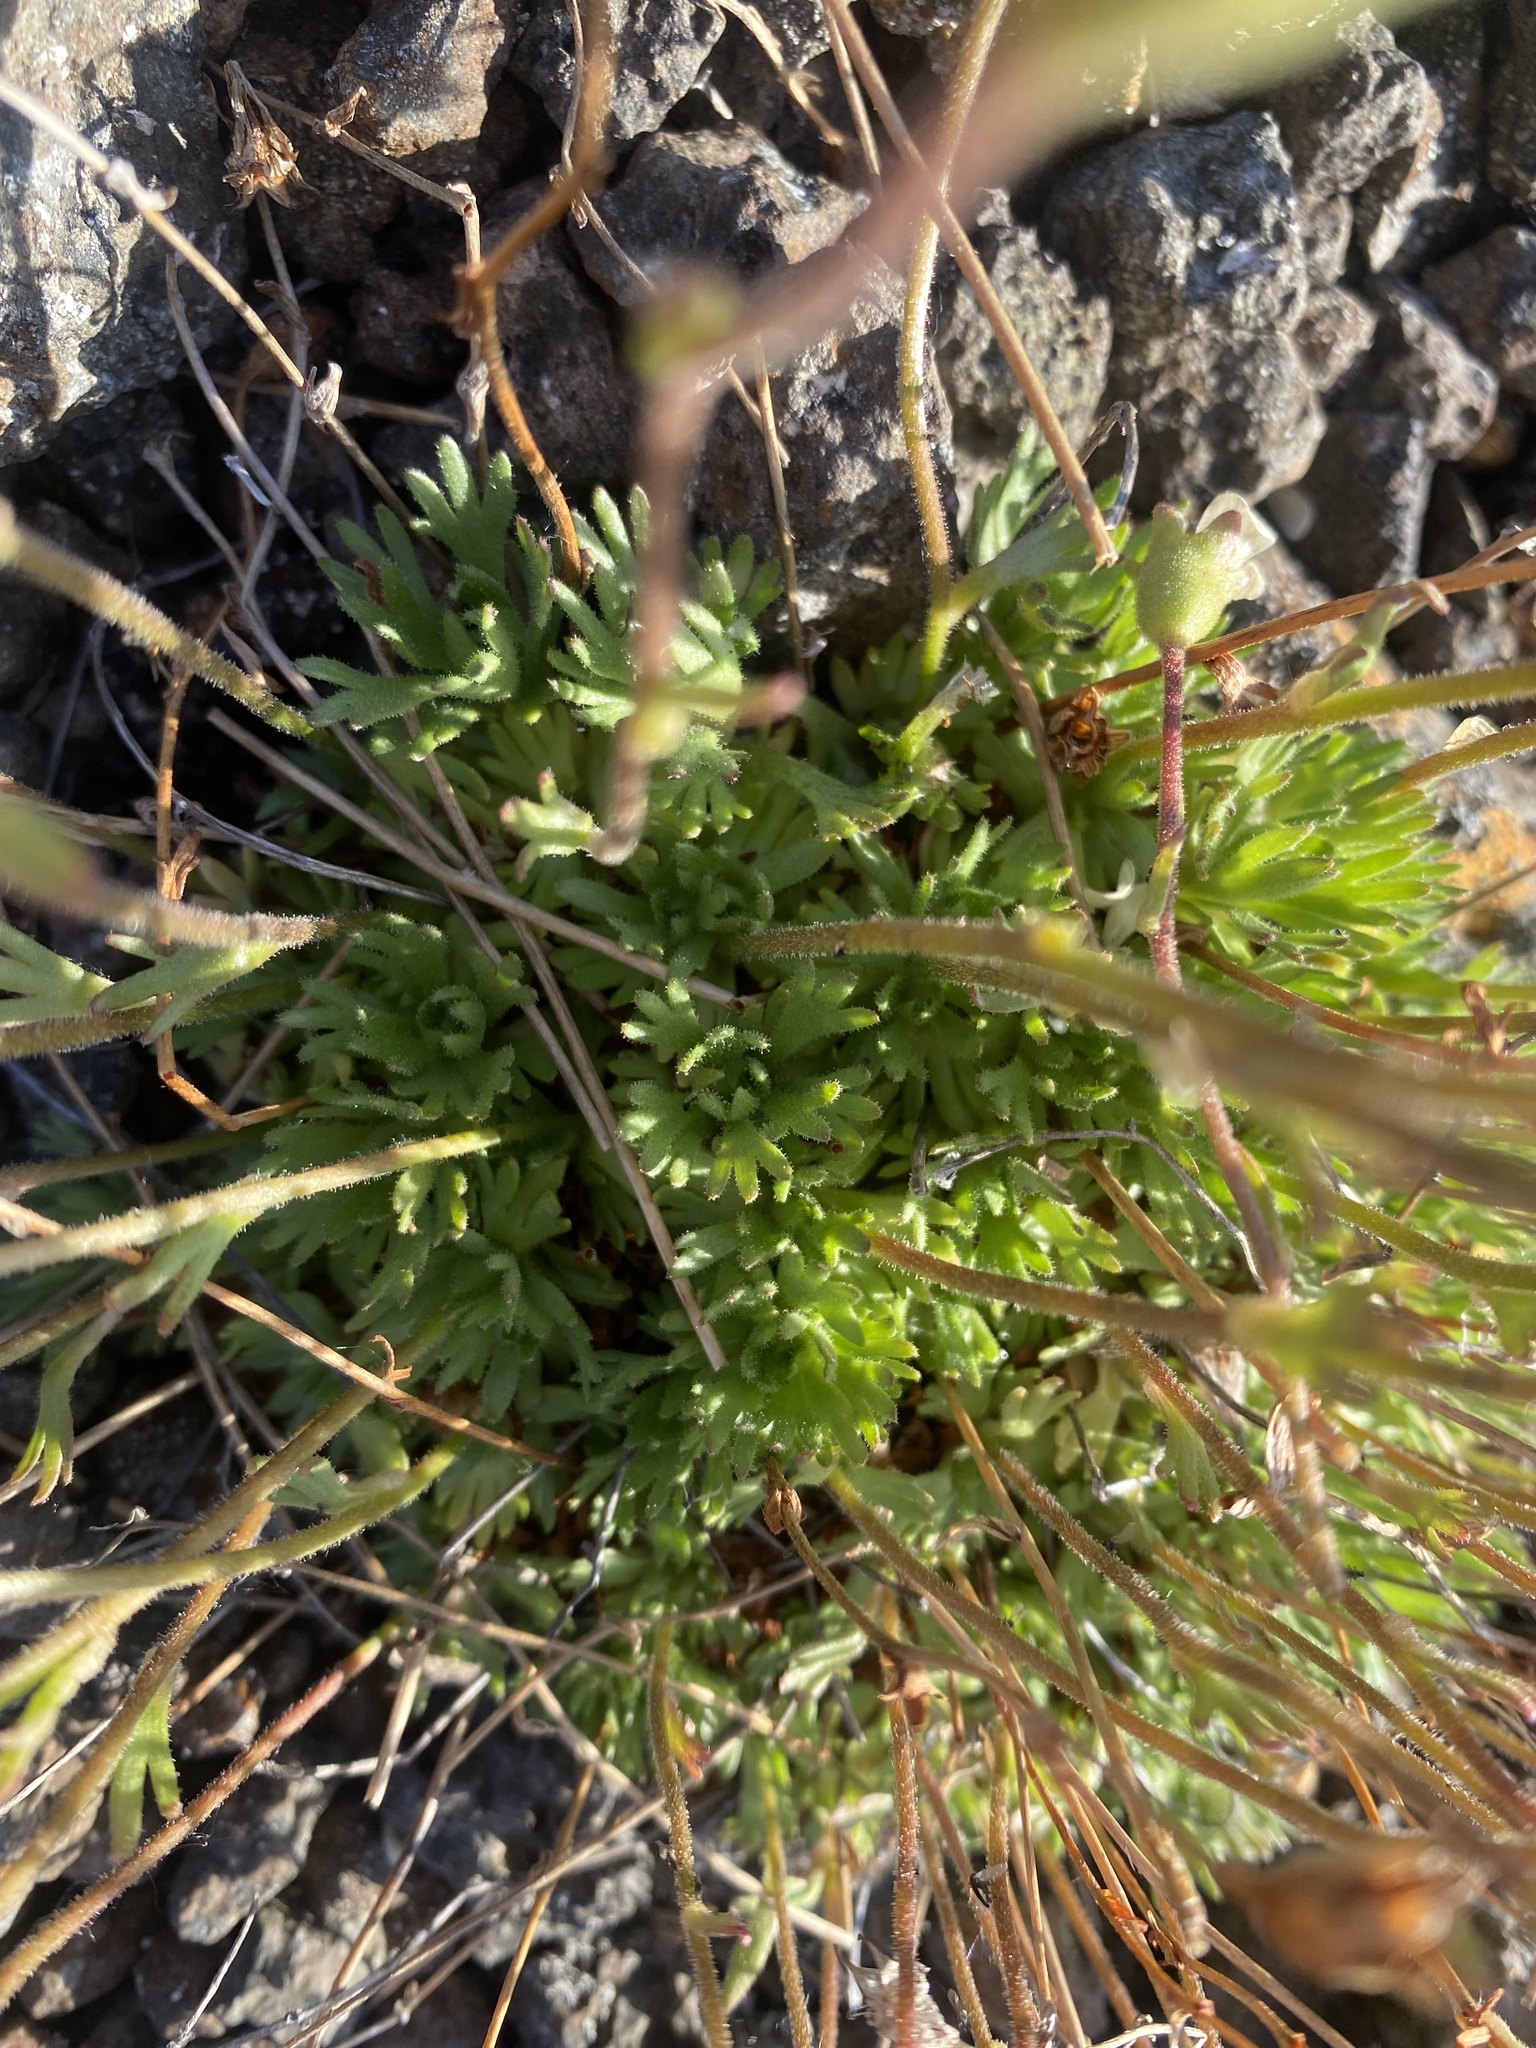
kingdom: Plantae
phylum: Tracheophyta
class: Magnoliopsida
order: Saxifragales
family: Saxifragaceae
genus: Saxifraga
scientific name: Saxifraga cespitosa
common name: Tufted saxifrage
